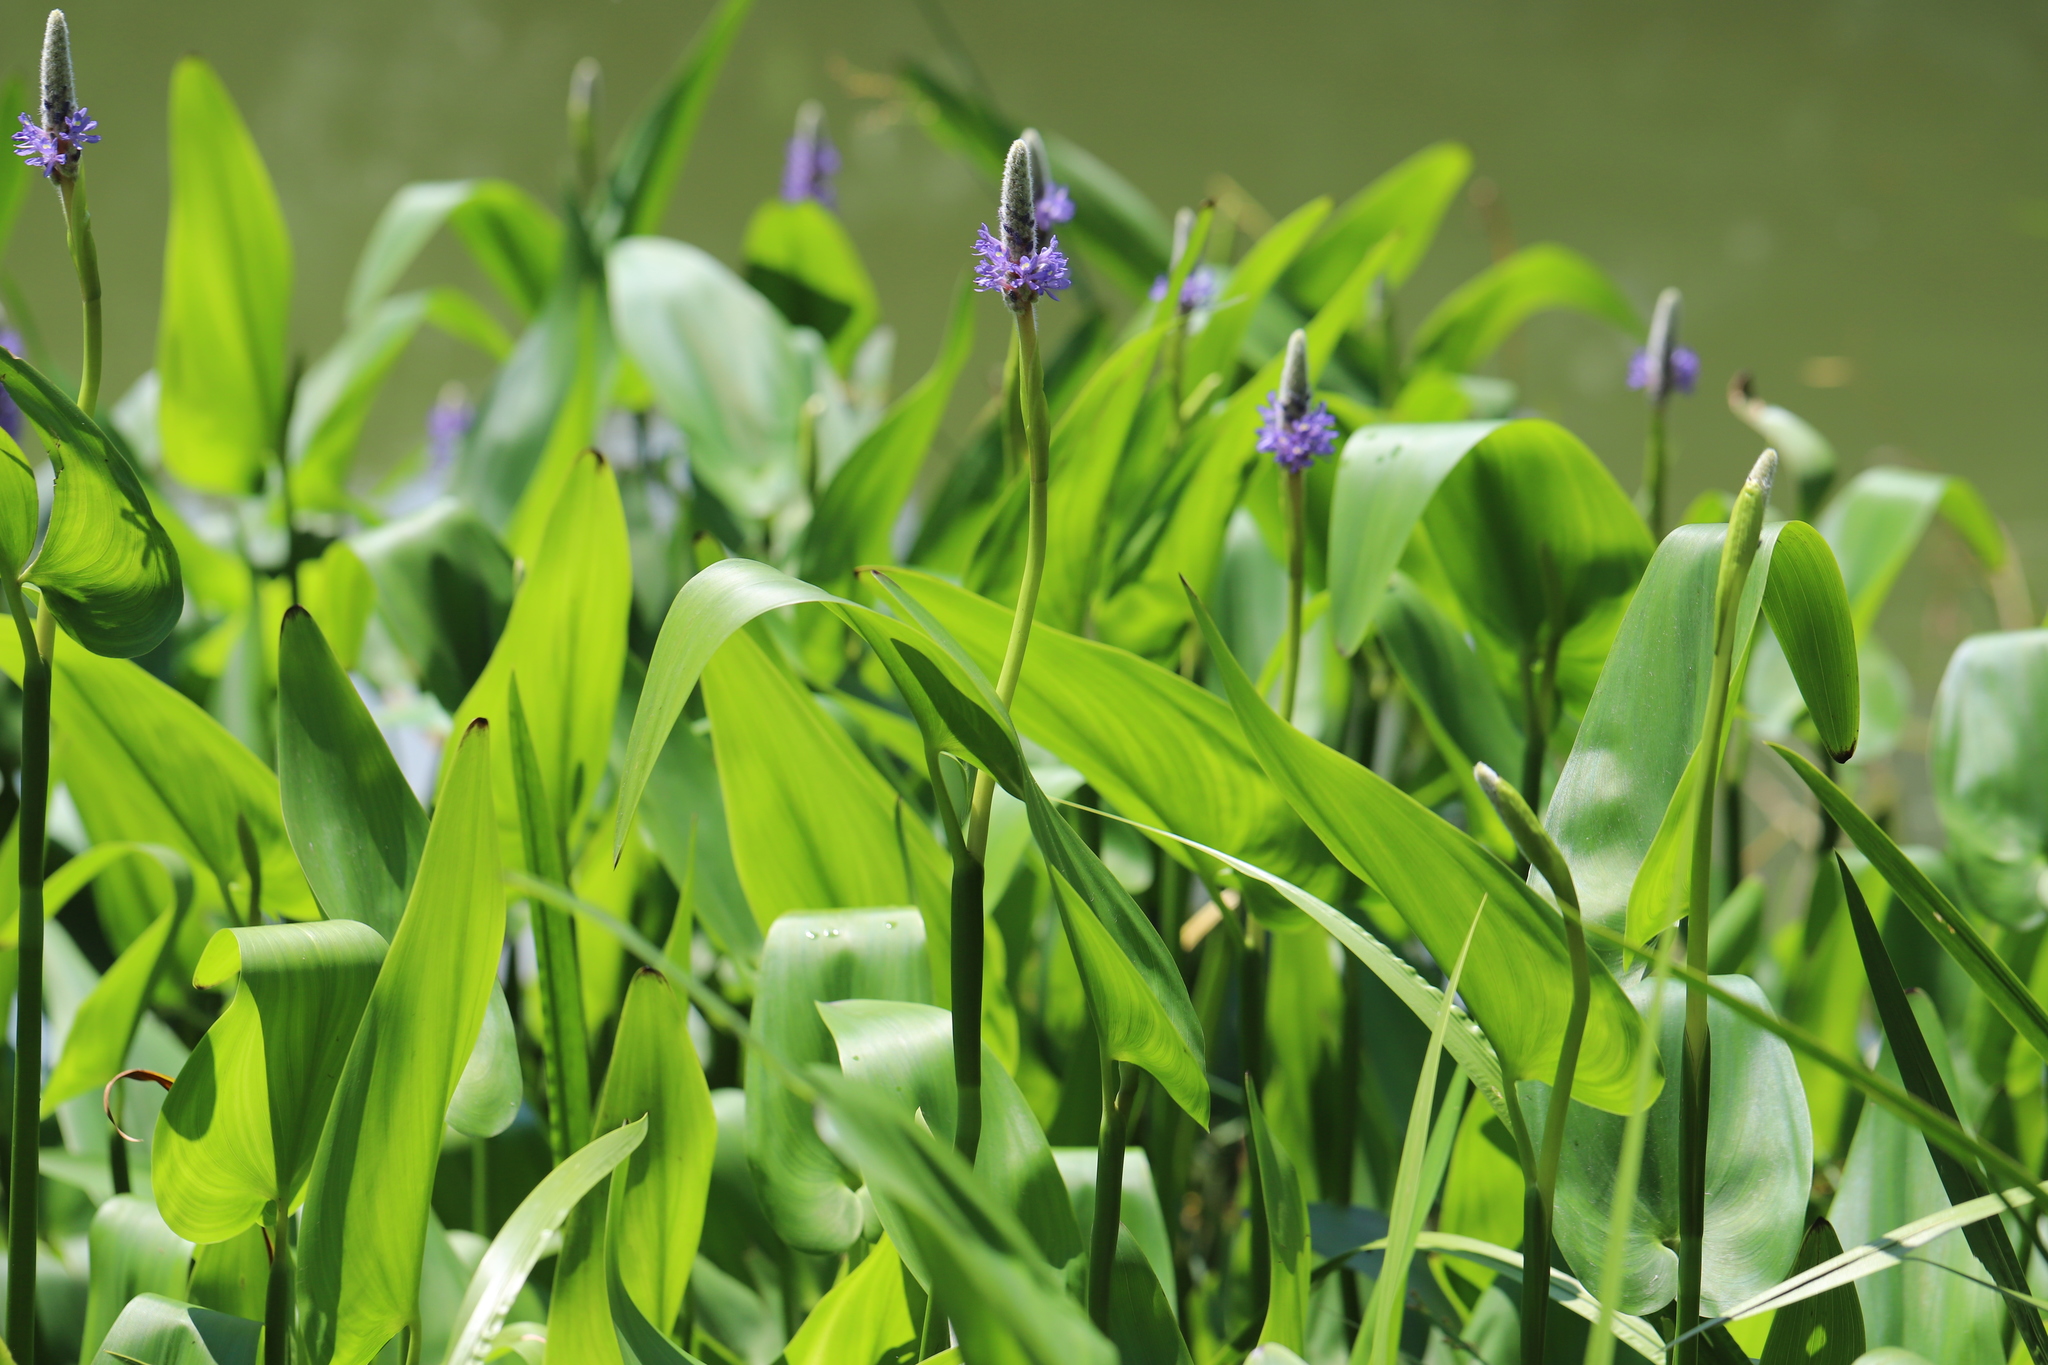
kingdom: Plantae
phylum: Tracheophyta
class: Liliopsida
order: Commelinales
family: Pontederiaceae
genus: Pontederia
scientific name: Pontederia cordata
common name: Pickerelweed
